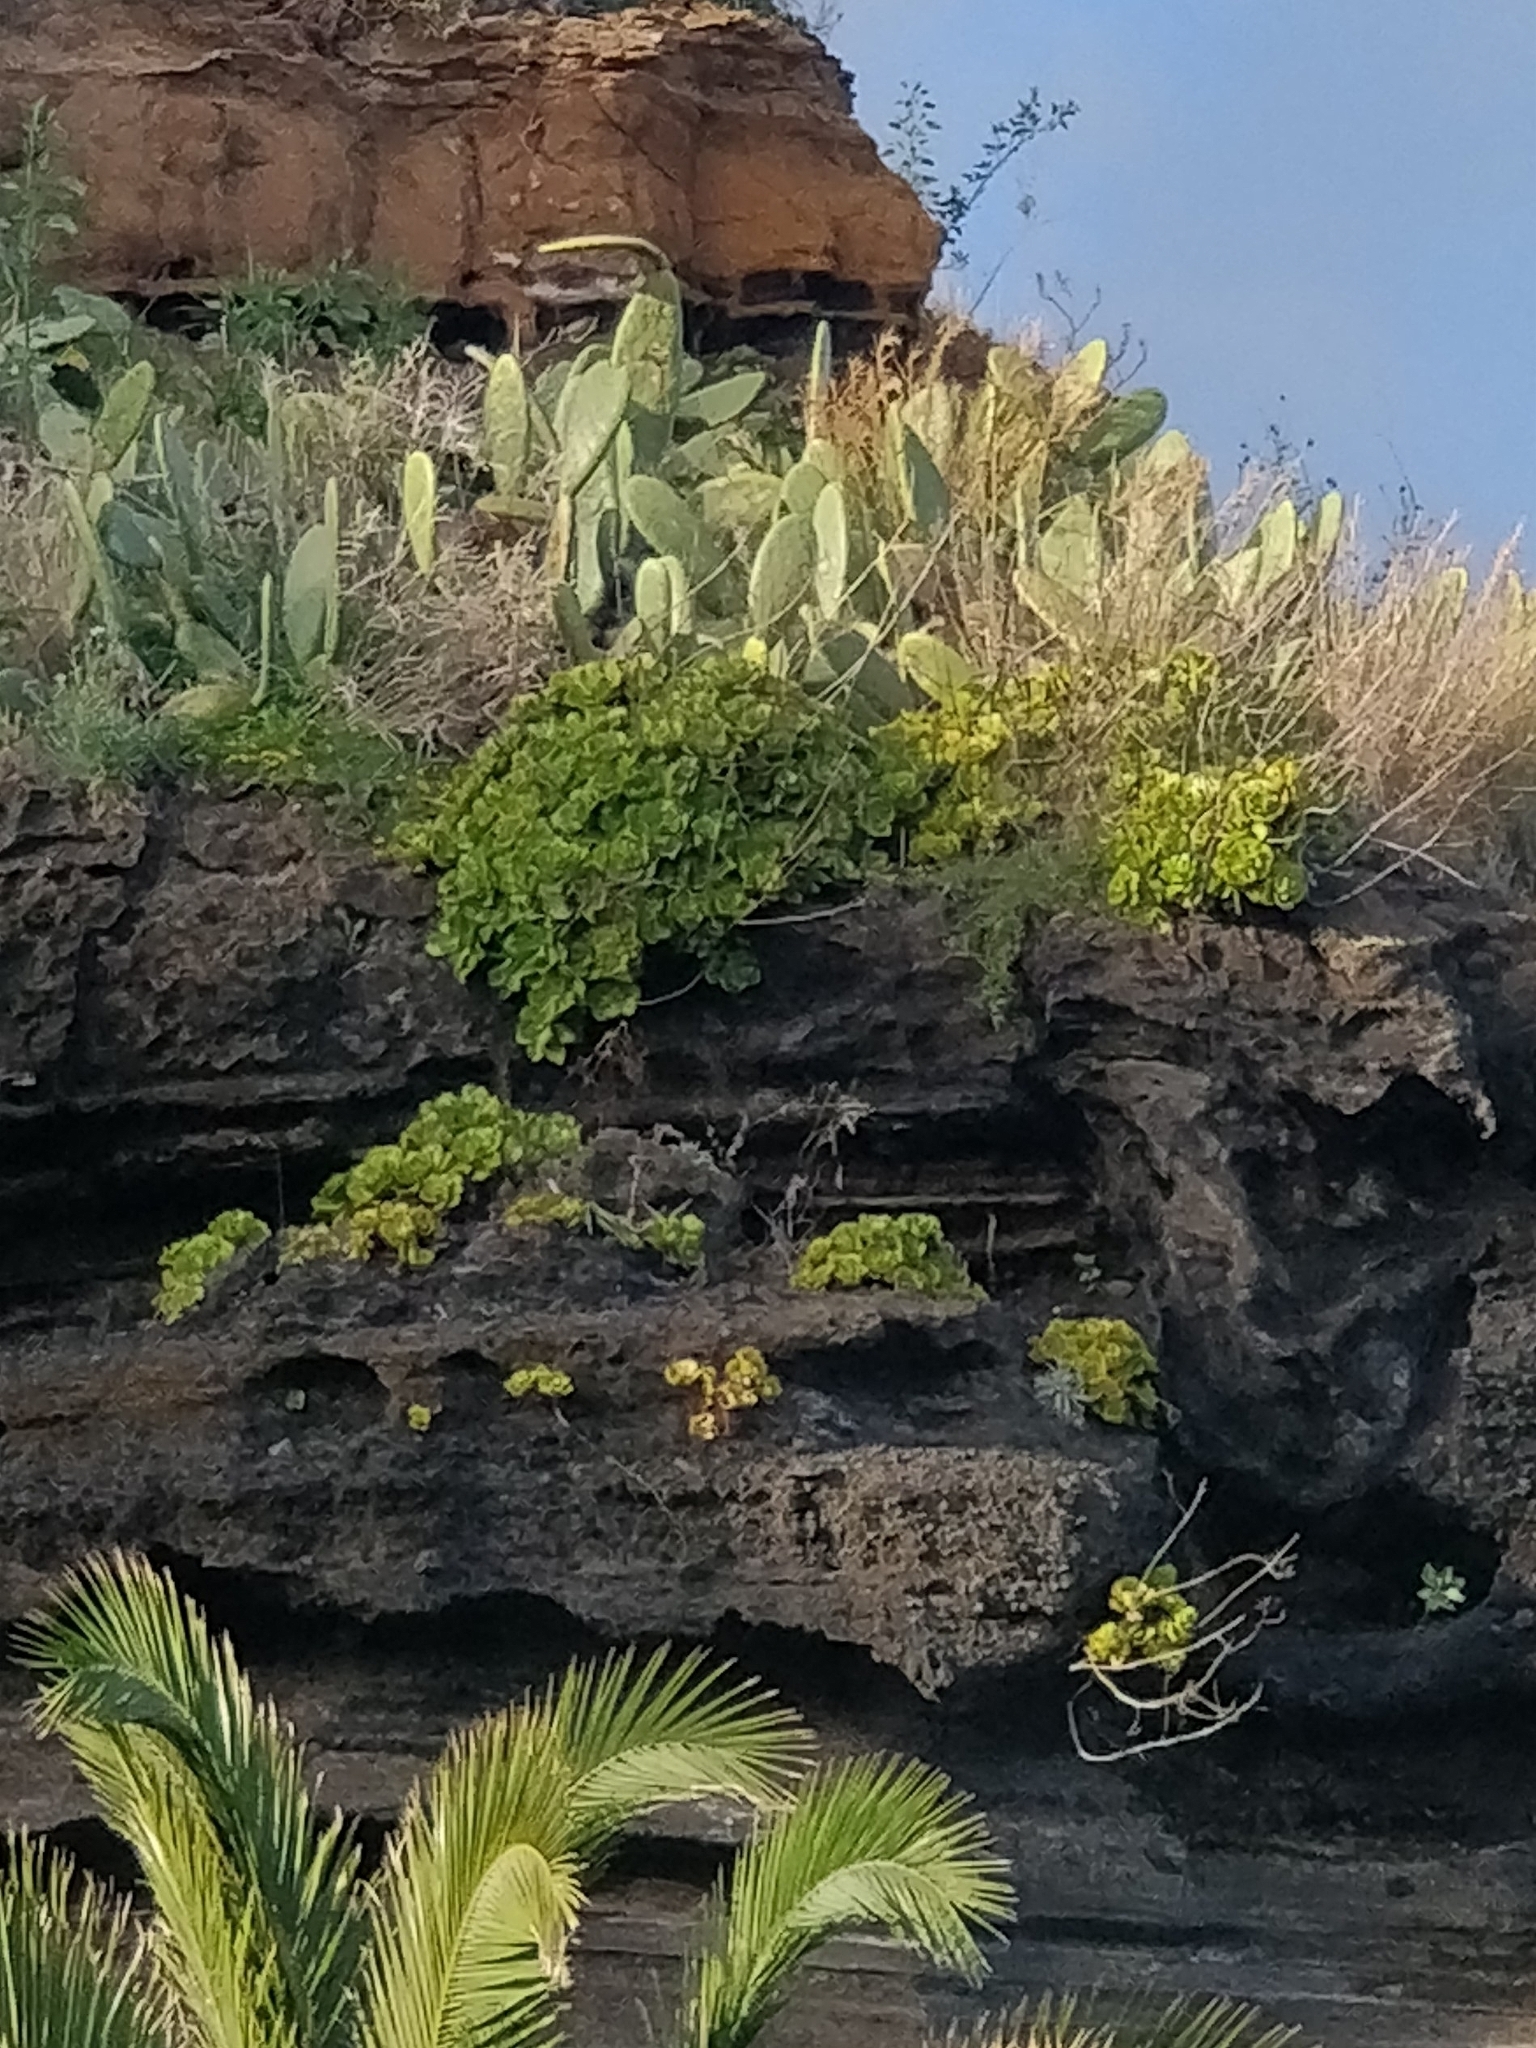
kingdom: Plantae
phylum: Tracheophyta
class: Magnoliopsida
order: Saxifragales
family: Crassulaceae
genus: Aeonium
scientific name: Aeonium glutinosum
